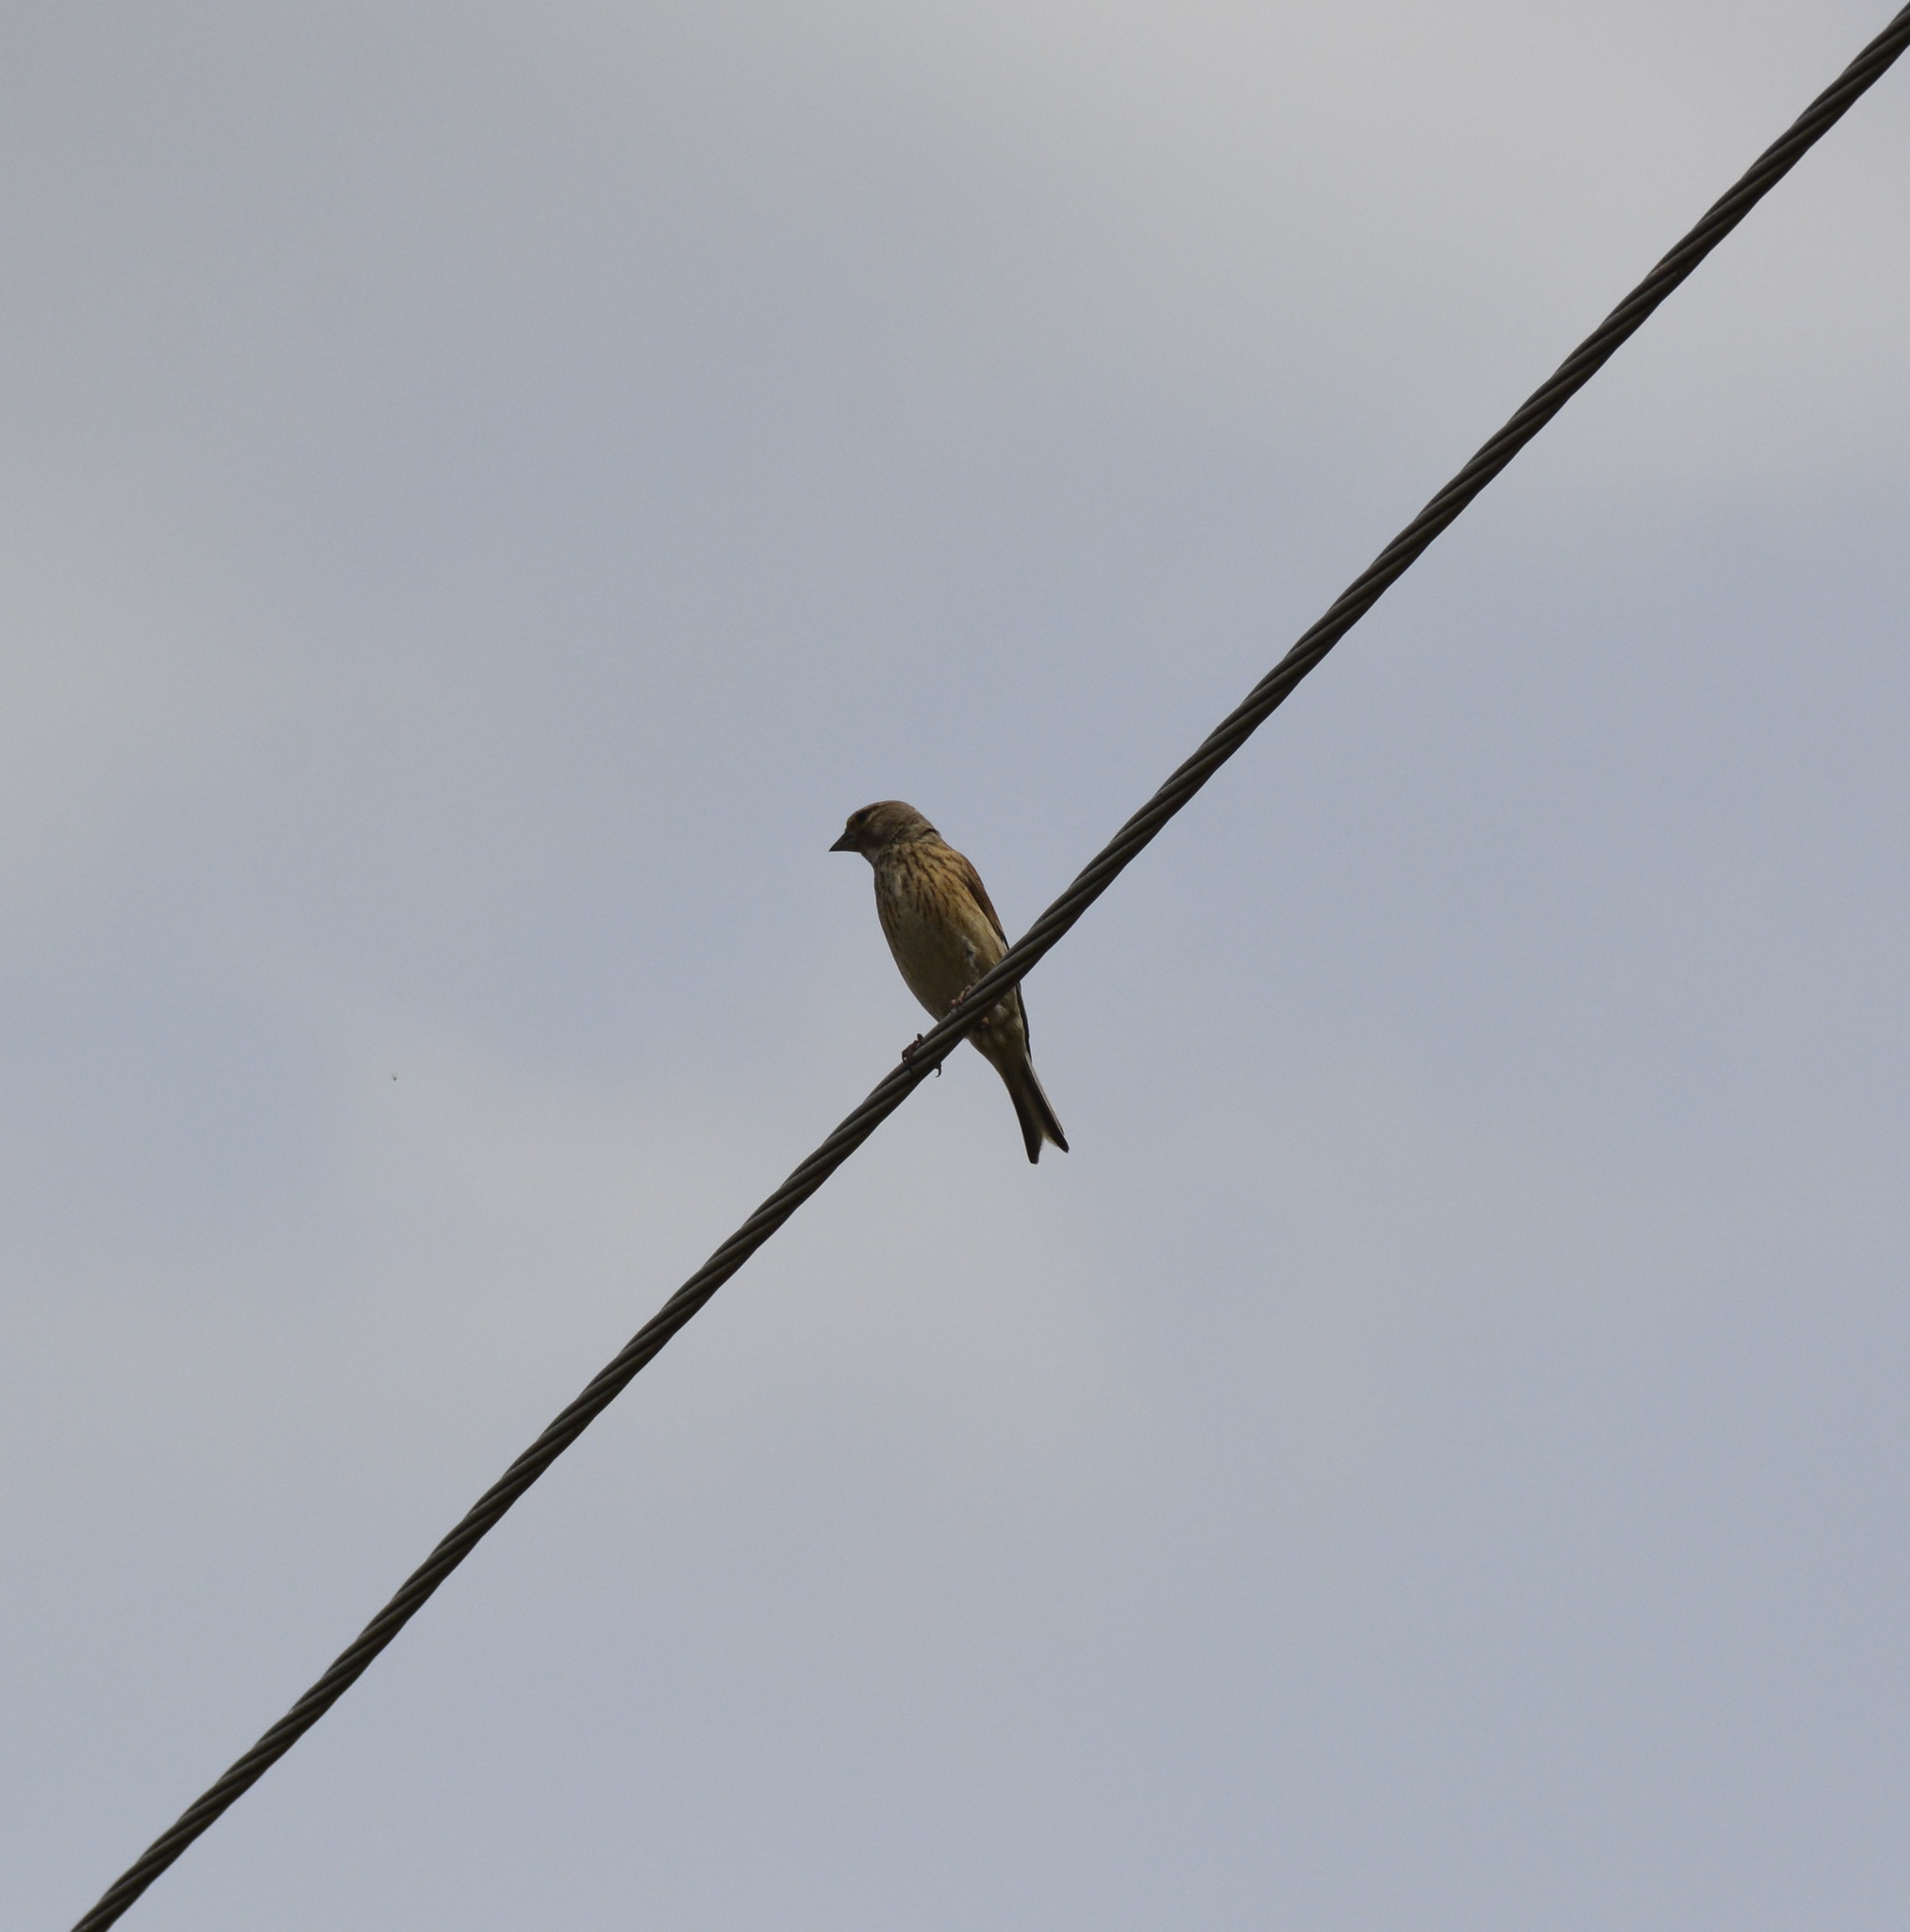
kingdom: Animalia
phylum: Chordata
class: Aves
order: Passeriformes
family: Fringillidae
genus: Linaria
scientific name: Linaria cannabina
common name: Common linnet
